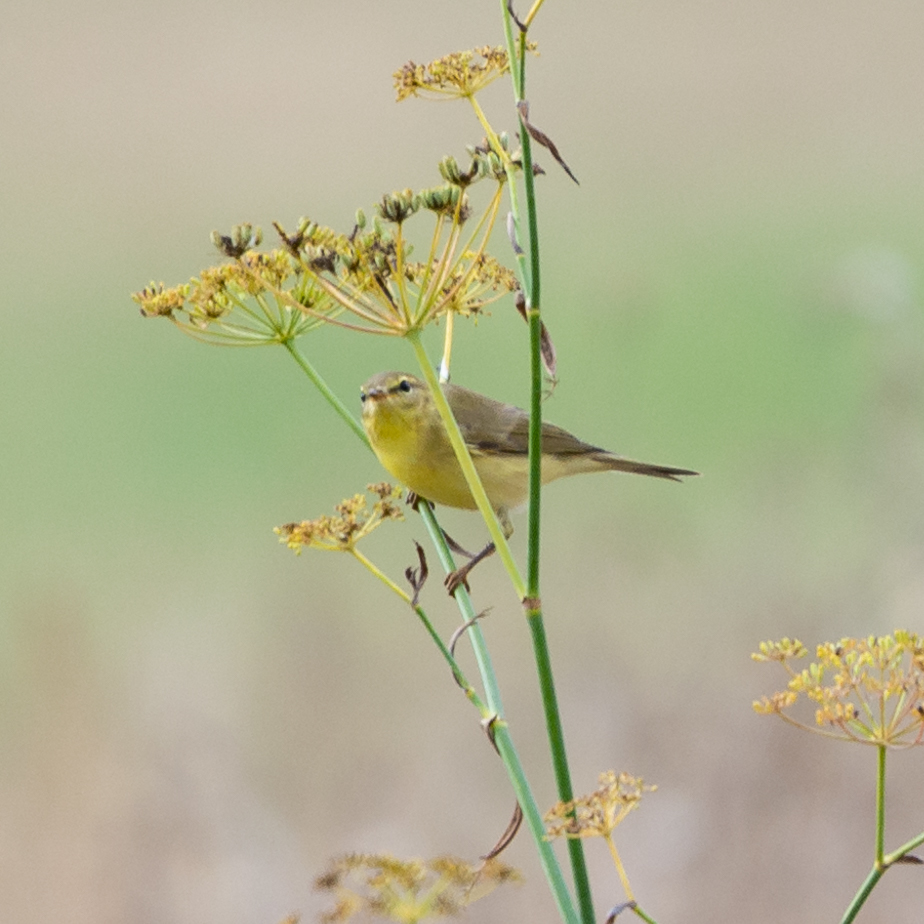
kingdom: Animalia
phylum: Chordata
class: Aves
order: Passeriformes
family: Phylloscopidae
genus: Phylloscopus
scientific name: Phylloscopus trochilus
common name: Willow warbler
